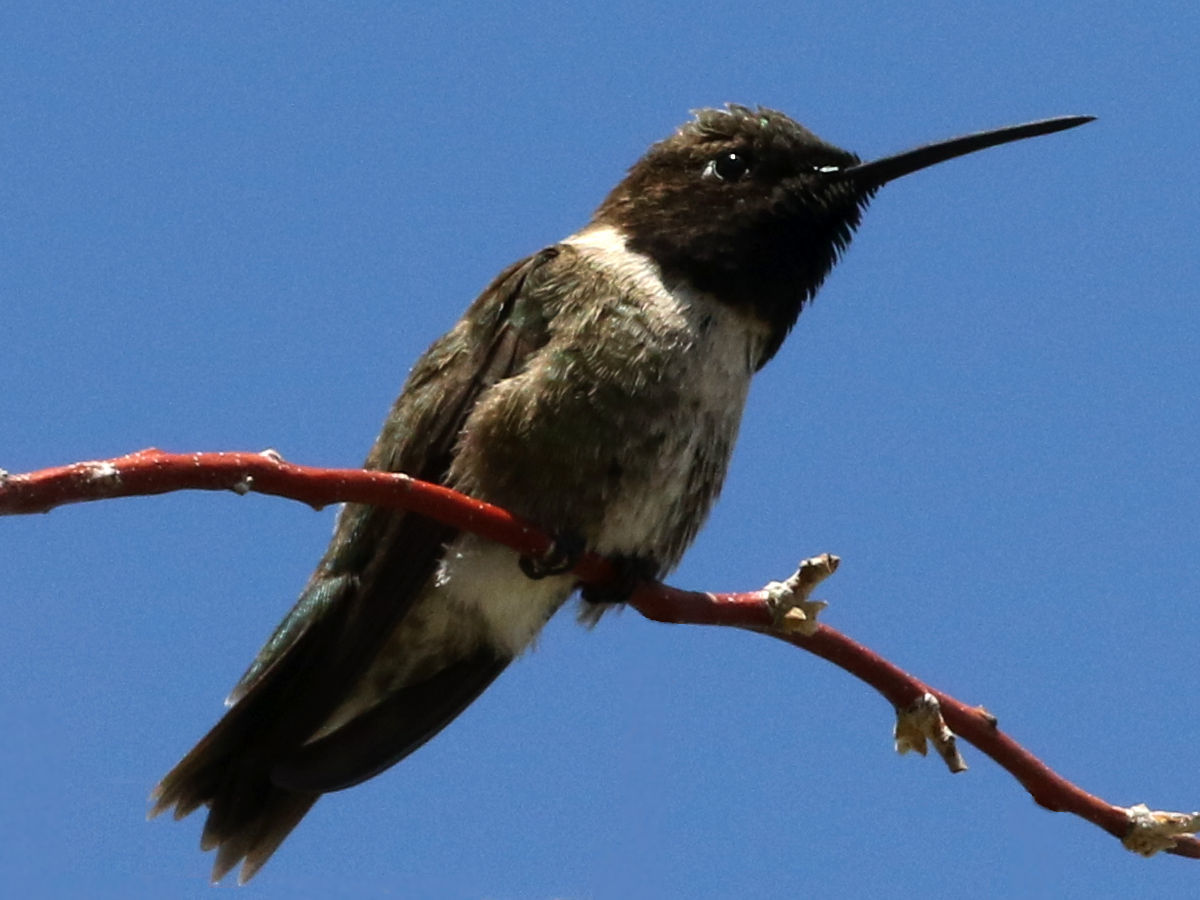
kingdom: Animalia
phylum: Chordata
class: Aves
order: Apodiformes
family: Trochilidae
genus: Archilochus
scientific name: Archilochus alexandri
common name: Black-chinned hummingbird
